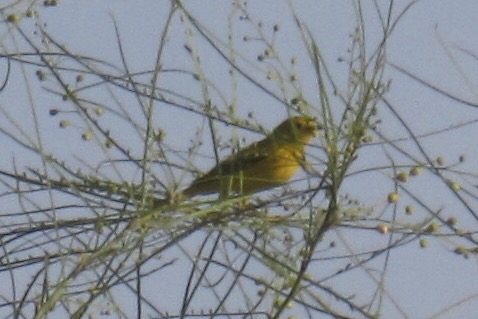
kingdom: Animalia
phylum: Chordata
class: Aves
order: Passeriformes
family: Parulidae
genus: Setophaga
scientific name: Setophaga petechia
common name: Yellow warbler
